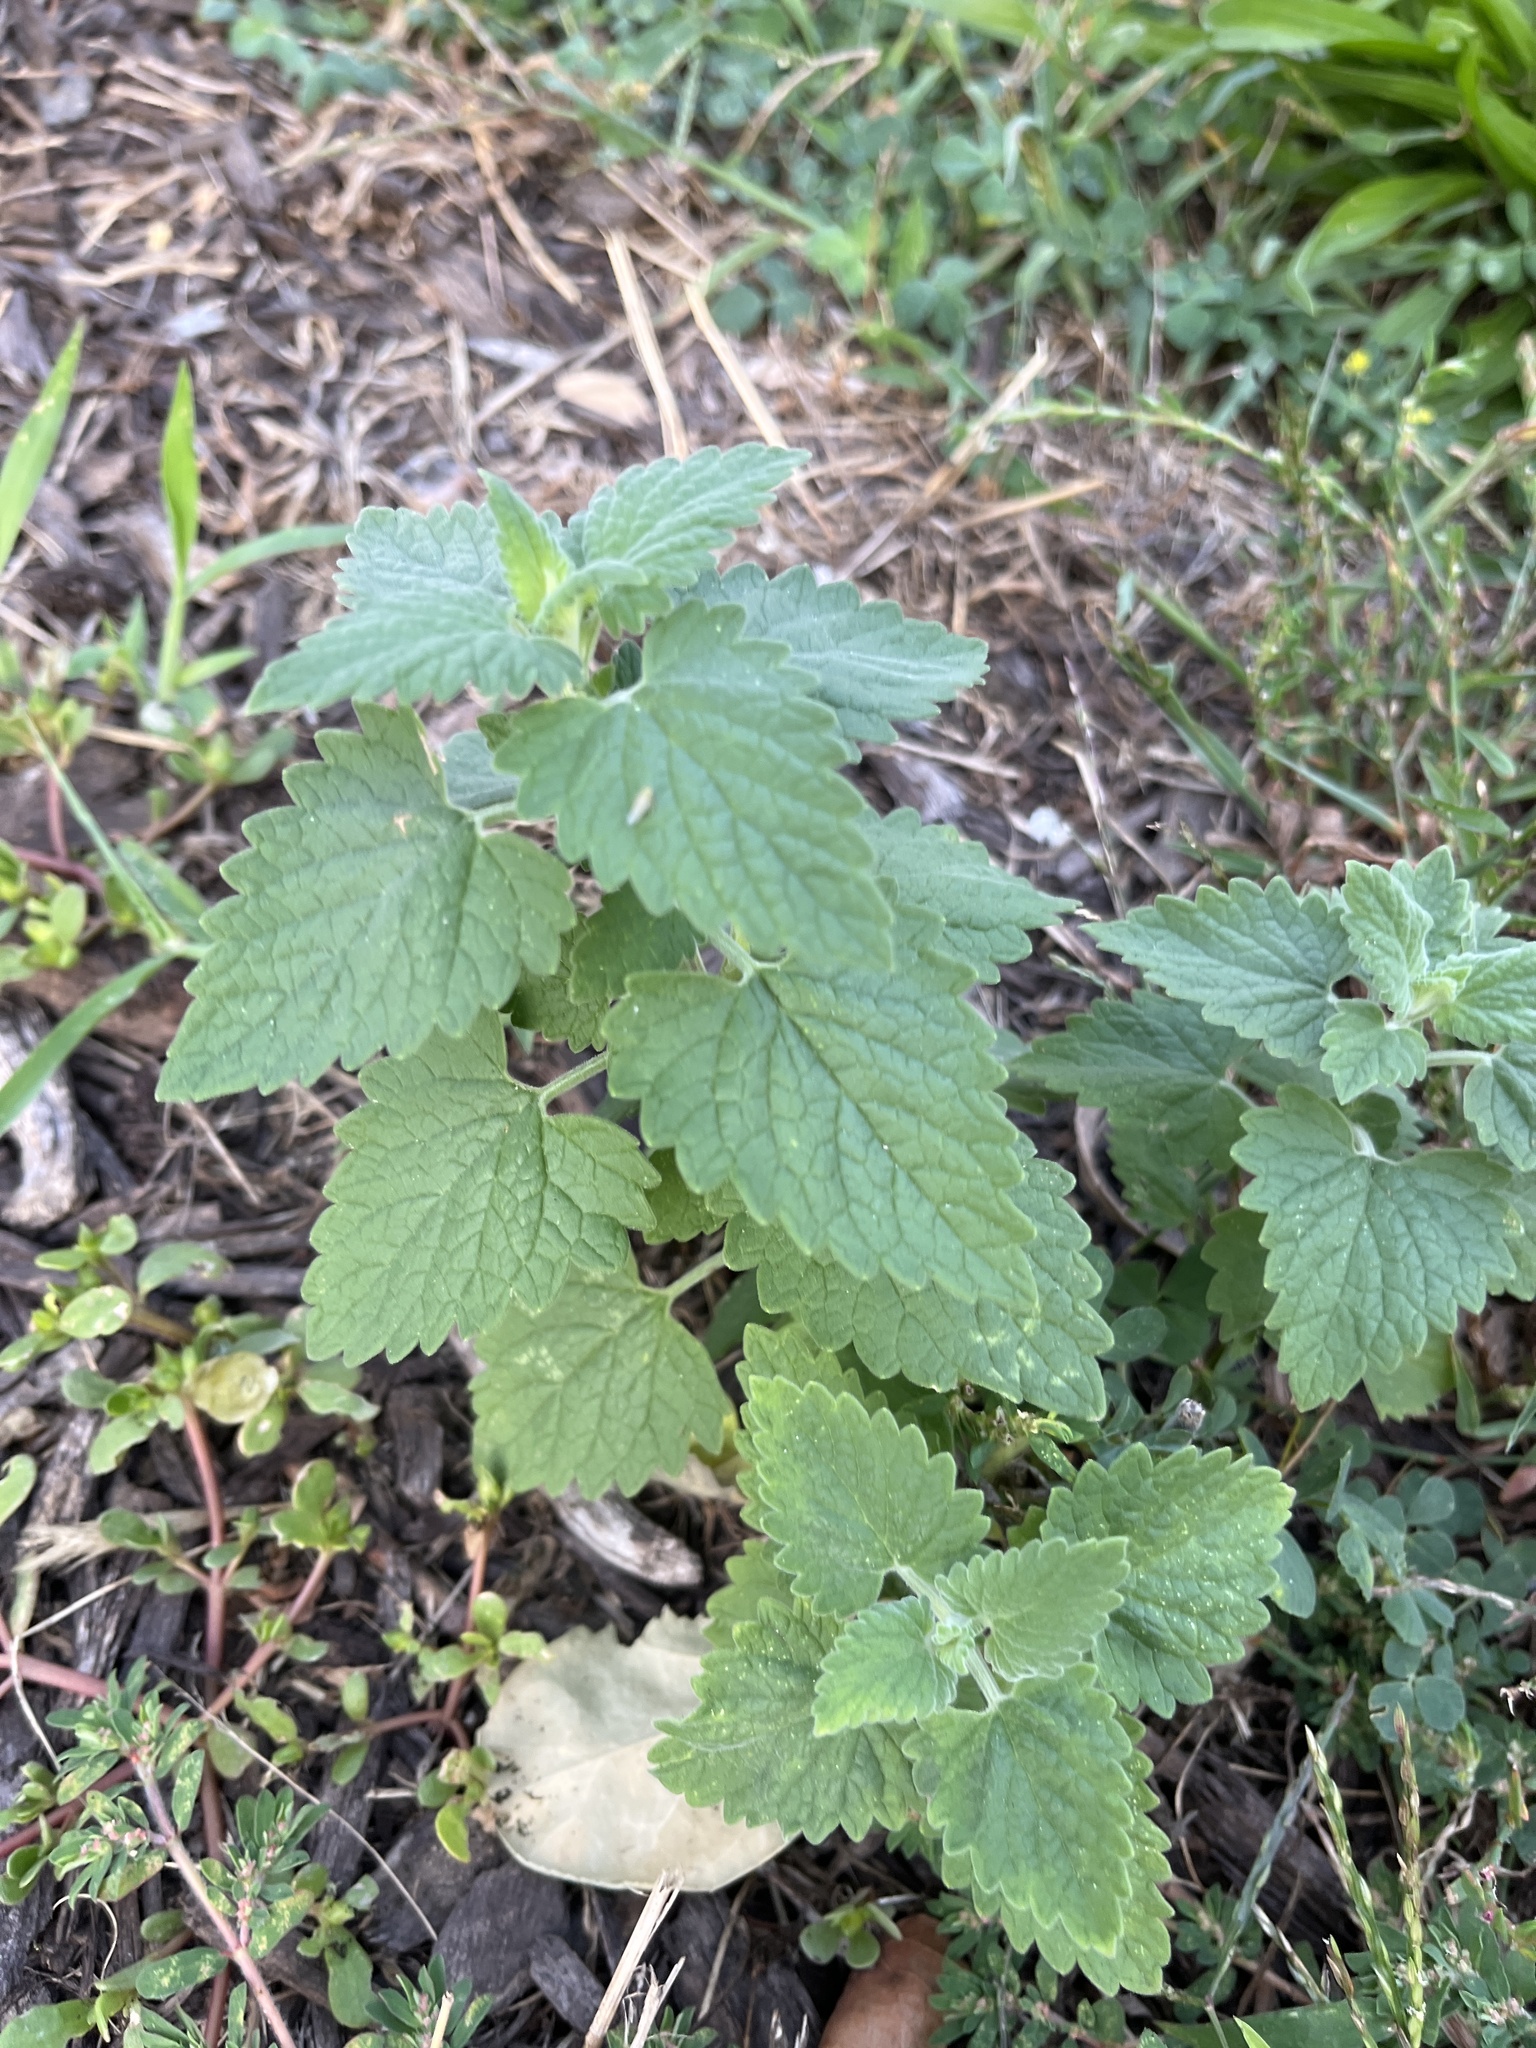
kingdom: Plantae
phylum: Tracheophyta
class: Magnoliopsida
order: Lamiales
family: Lamiaceae
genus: Nepeta
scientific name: Nepeta cataria
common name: Catnip
